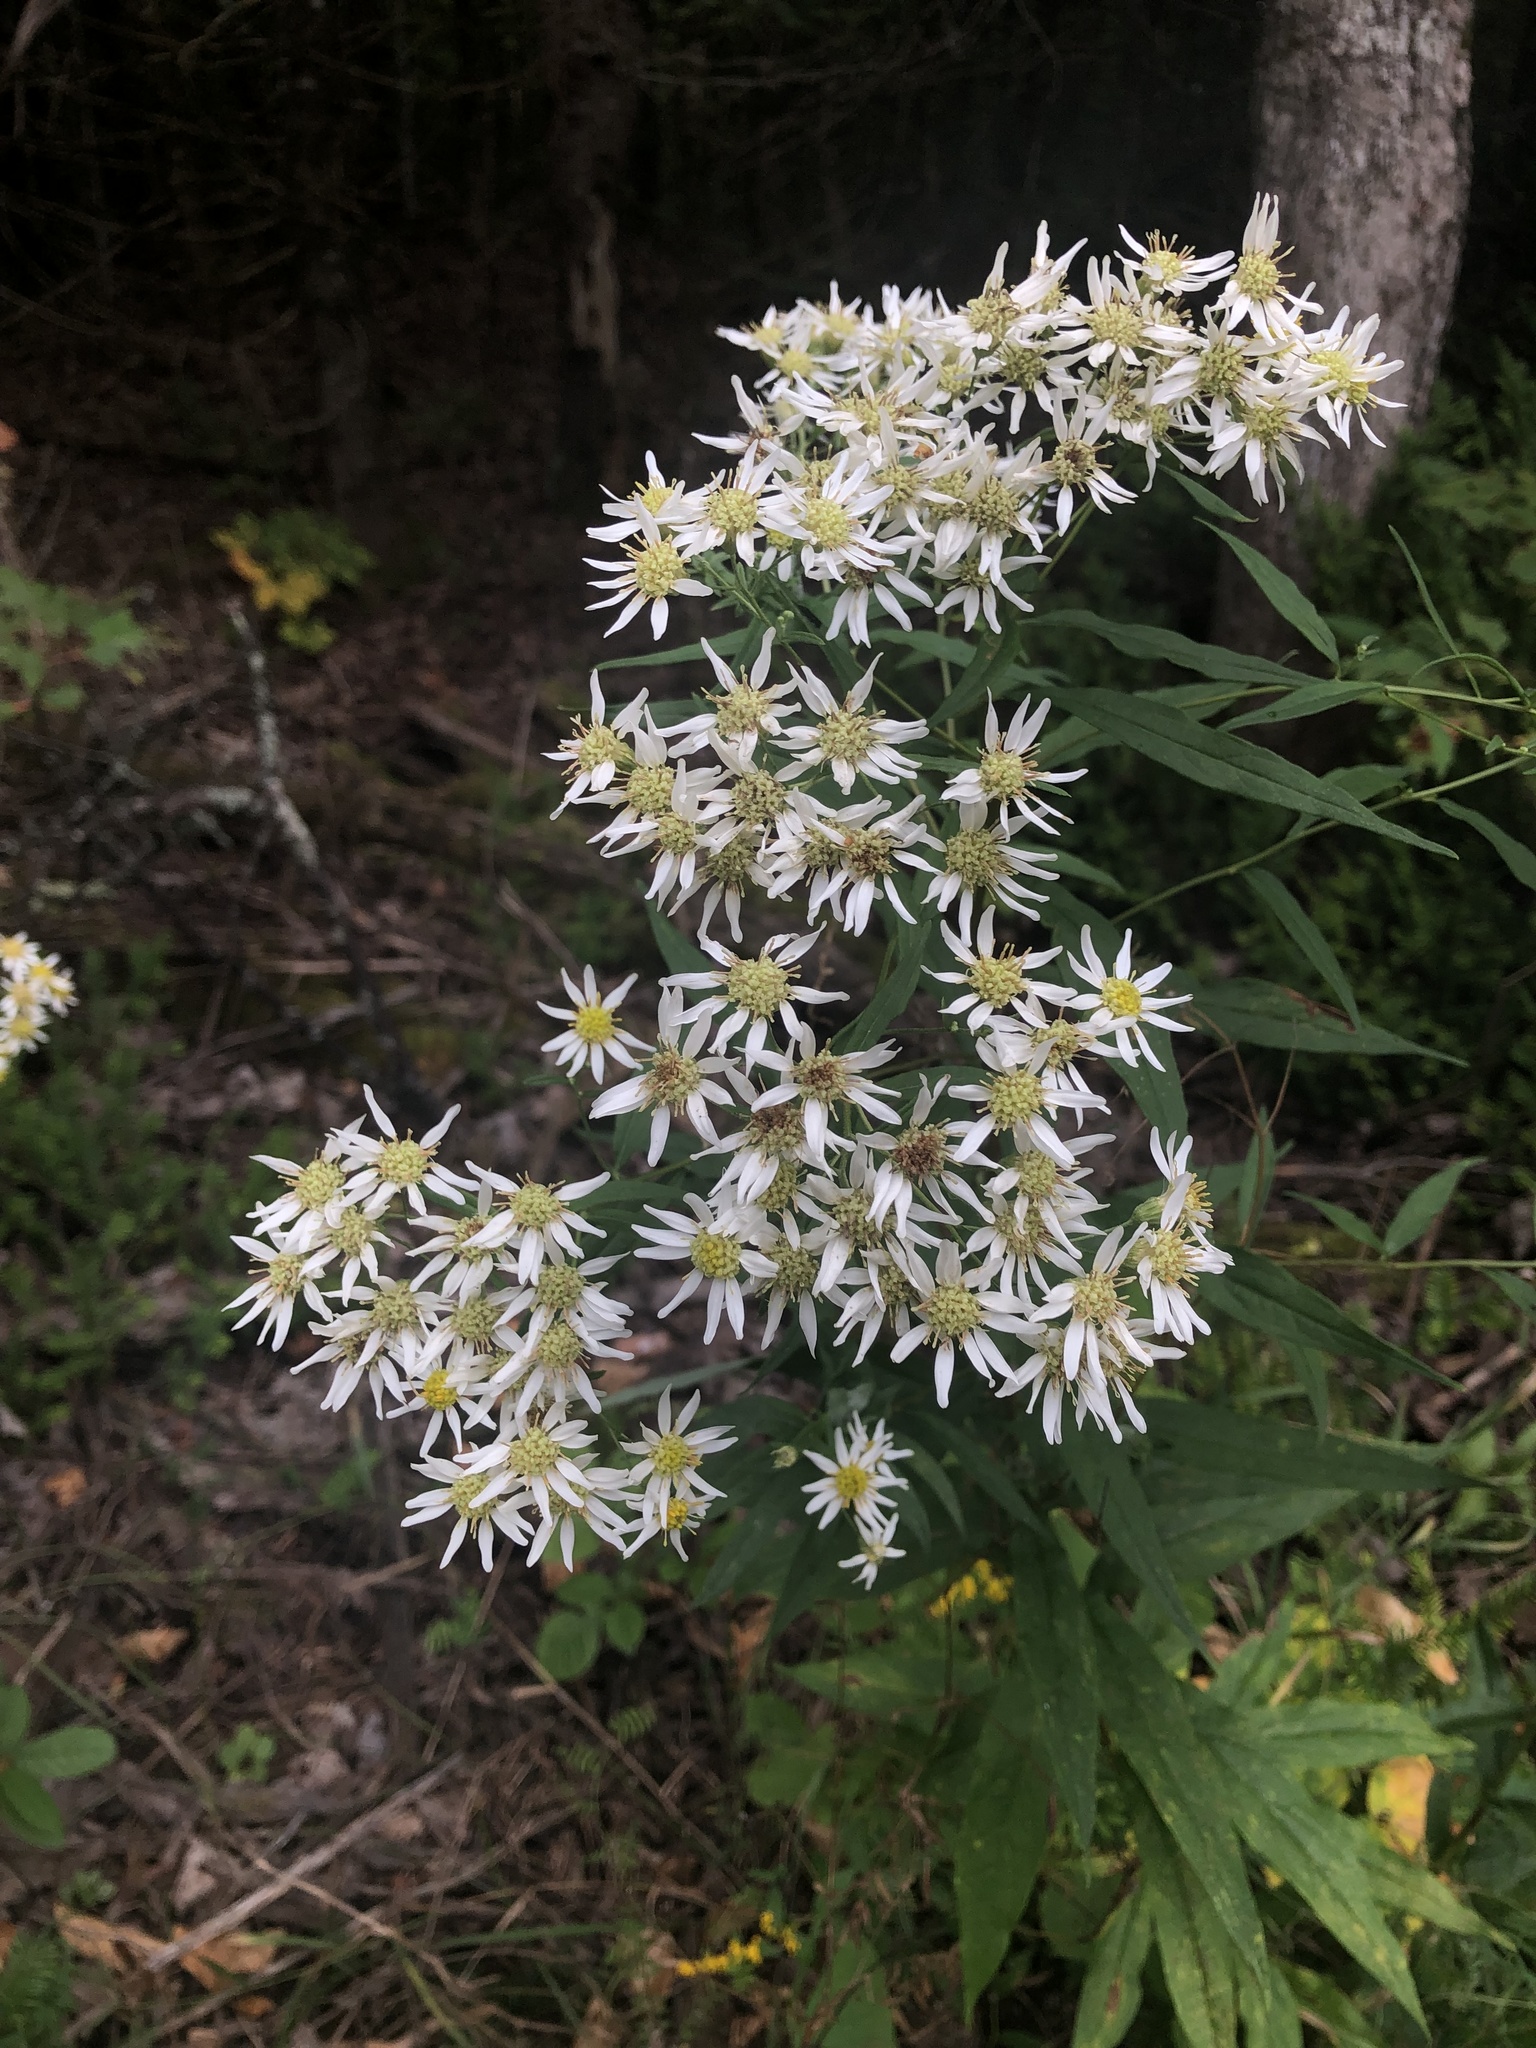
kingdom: Plantae
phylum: Tracheophyta
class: Magnoliopsida
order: Asterales
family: Asteraceae
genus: Doellingeria
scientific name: Doellingeria umbellata
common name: Flat-top white aster
